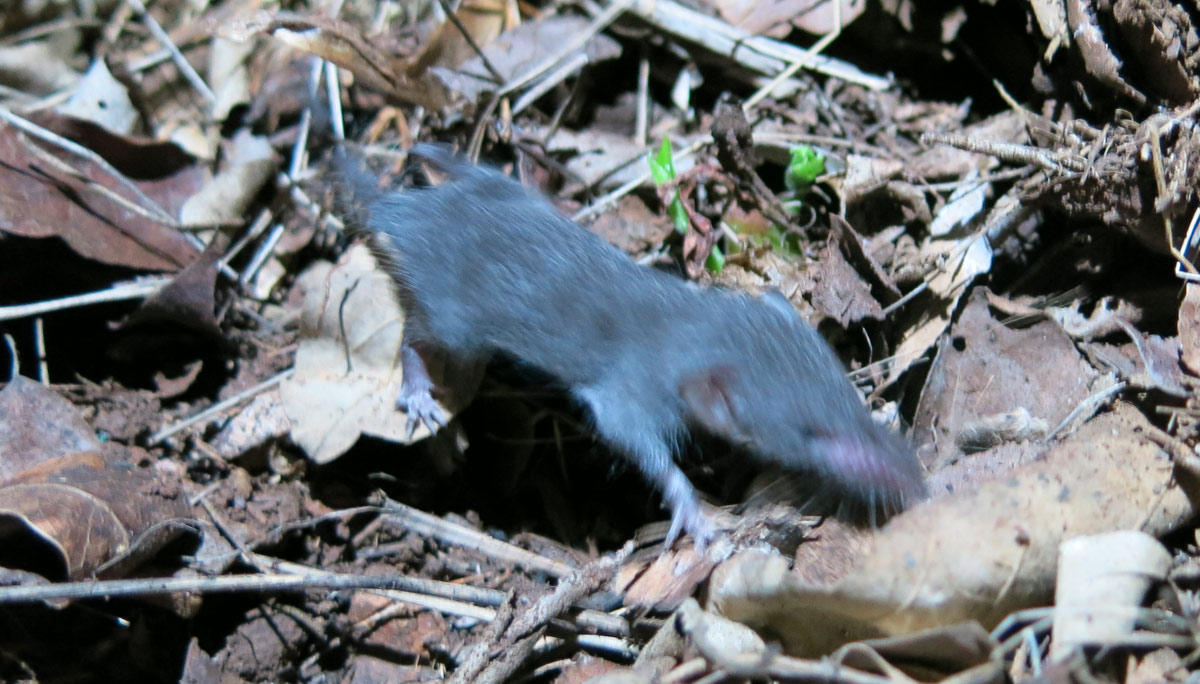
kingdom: Animalia
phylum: Chordata
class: Mammalia
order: Soricomorpha
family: Soricidae
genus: Suncus
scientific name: Suncus lixus
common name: Greater dwarf shrew
